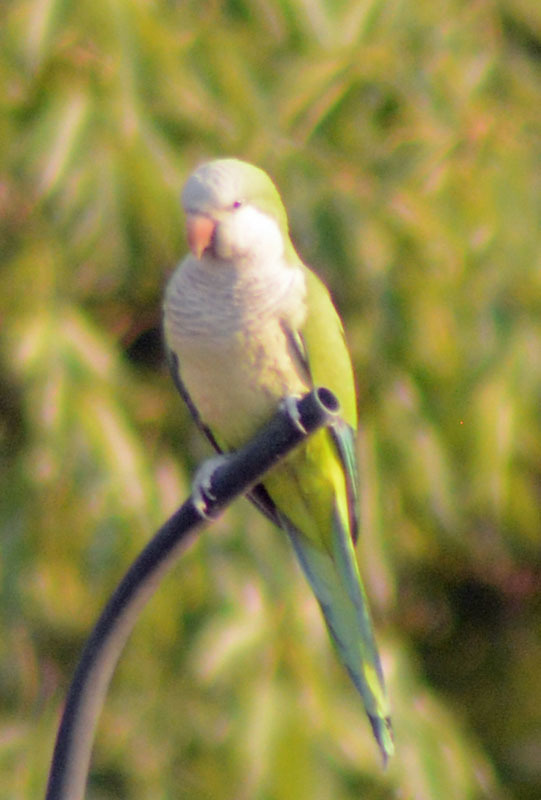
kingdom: Animalia
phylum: Chordata
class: Aves
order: Psittaciformes
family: Psittacidae
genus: Myiopsitta
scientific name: Myiopsitta monachus
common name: Monk parakeet
